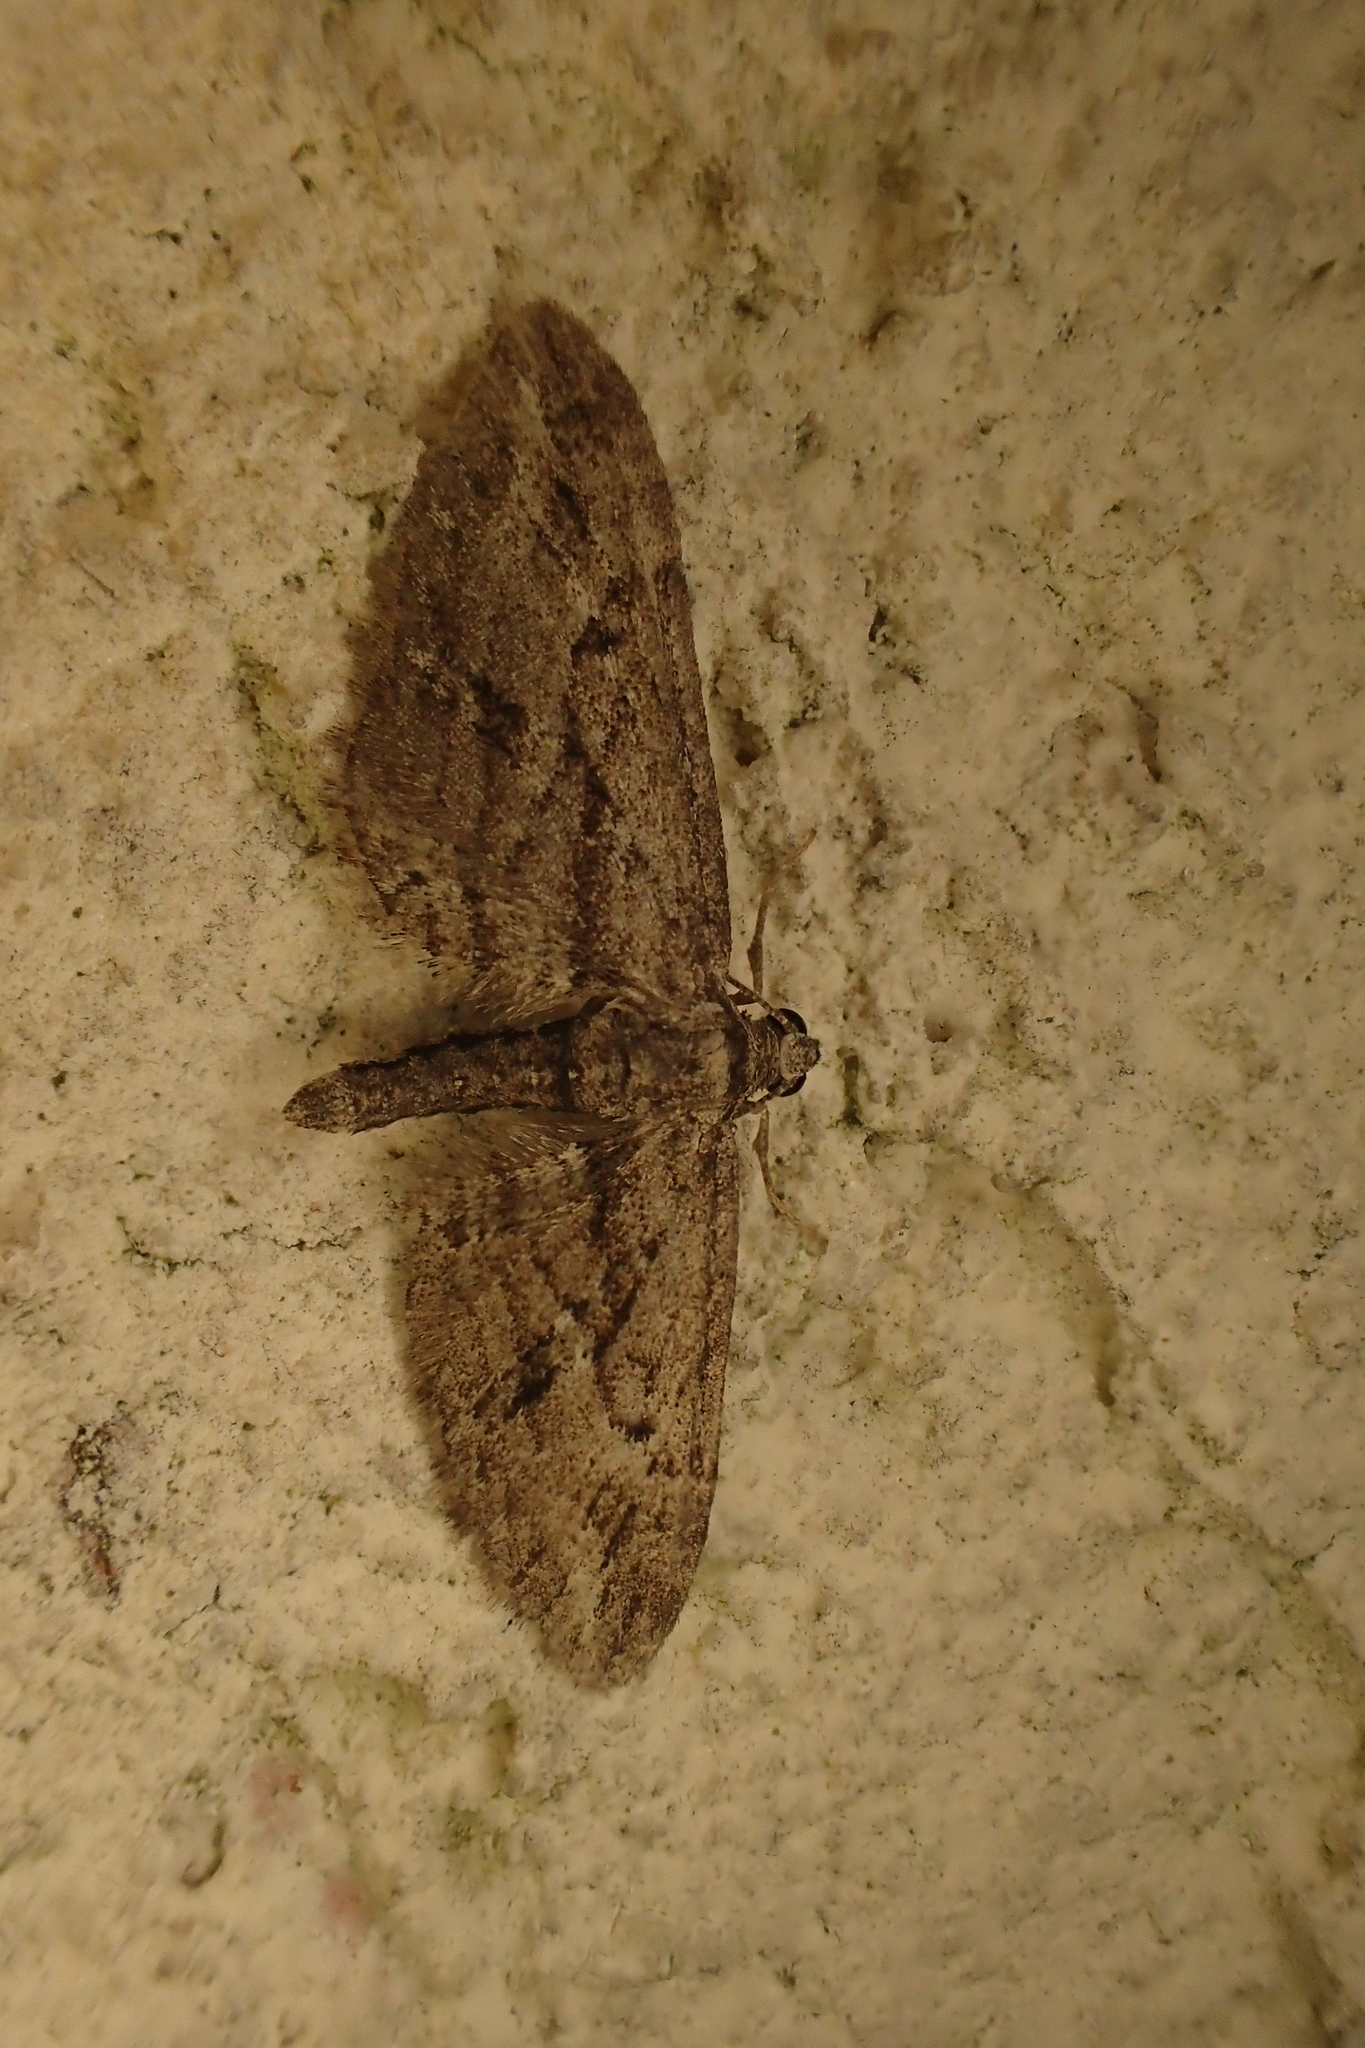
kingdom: Animalia
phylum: Arthropoda
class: Insecta
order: Lepidoptera
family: Geometridae
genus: Eupithecia
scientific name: Eupithecia oxycedrata
